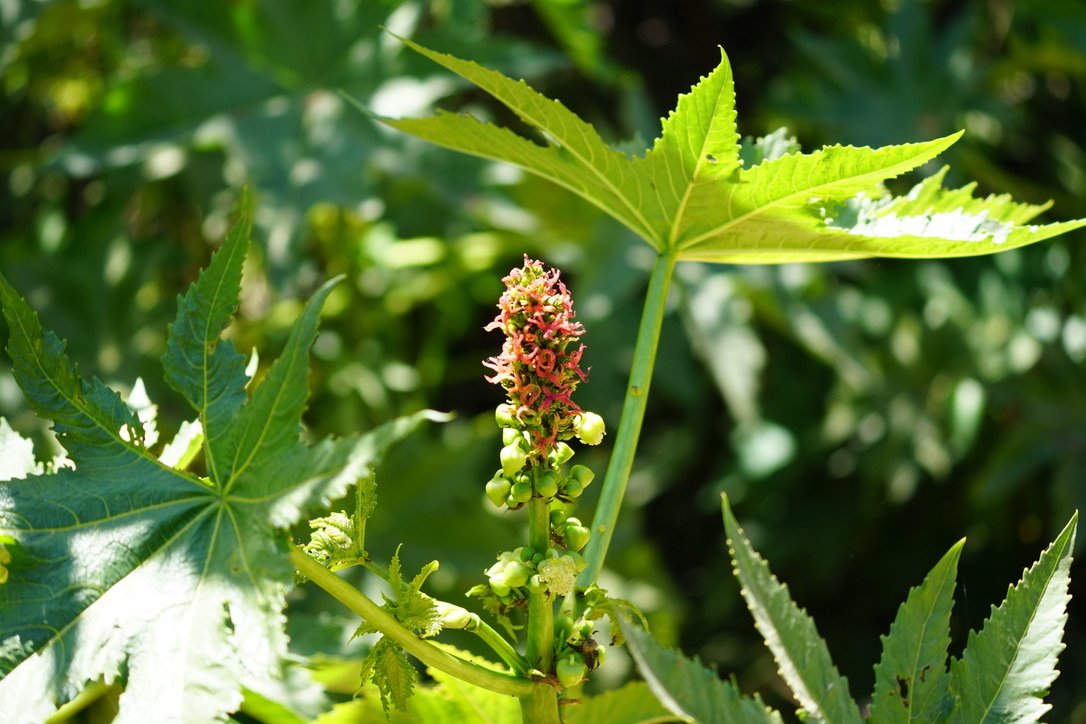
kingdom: Plantae
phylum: Tracheophyta
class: Magnoliopsida
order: Malpighiales
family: Euphorbiaceae
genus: Ricinus
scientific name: Ricinus communis
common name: Castor-oil-plant
